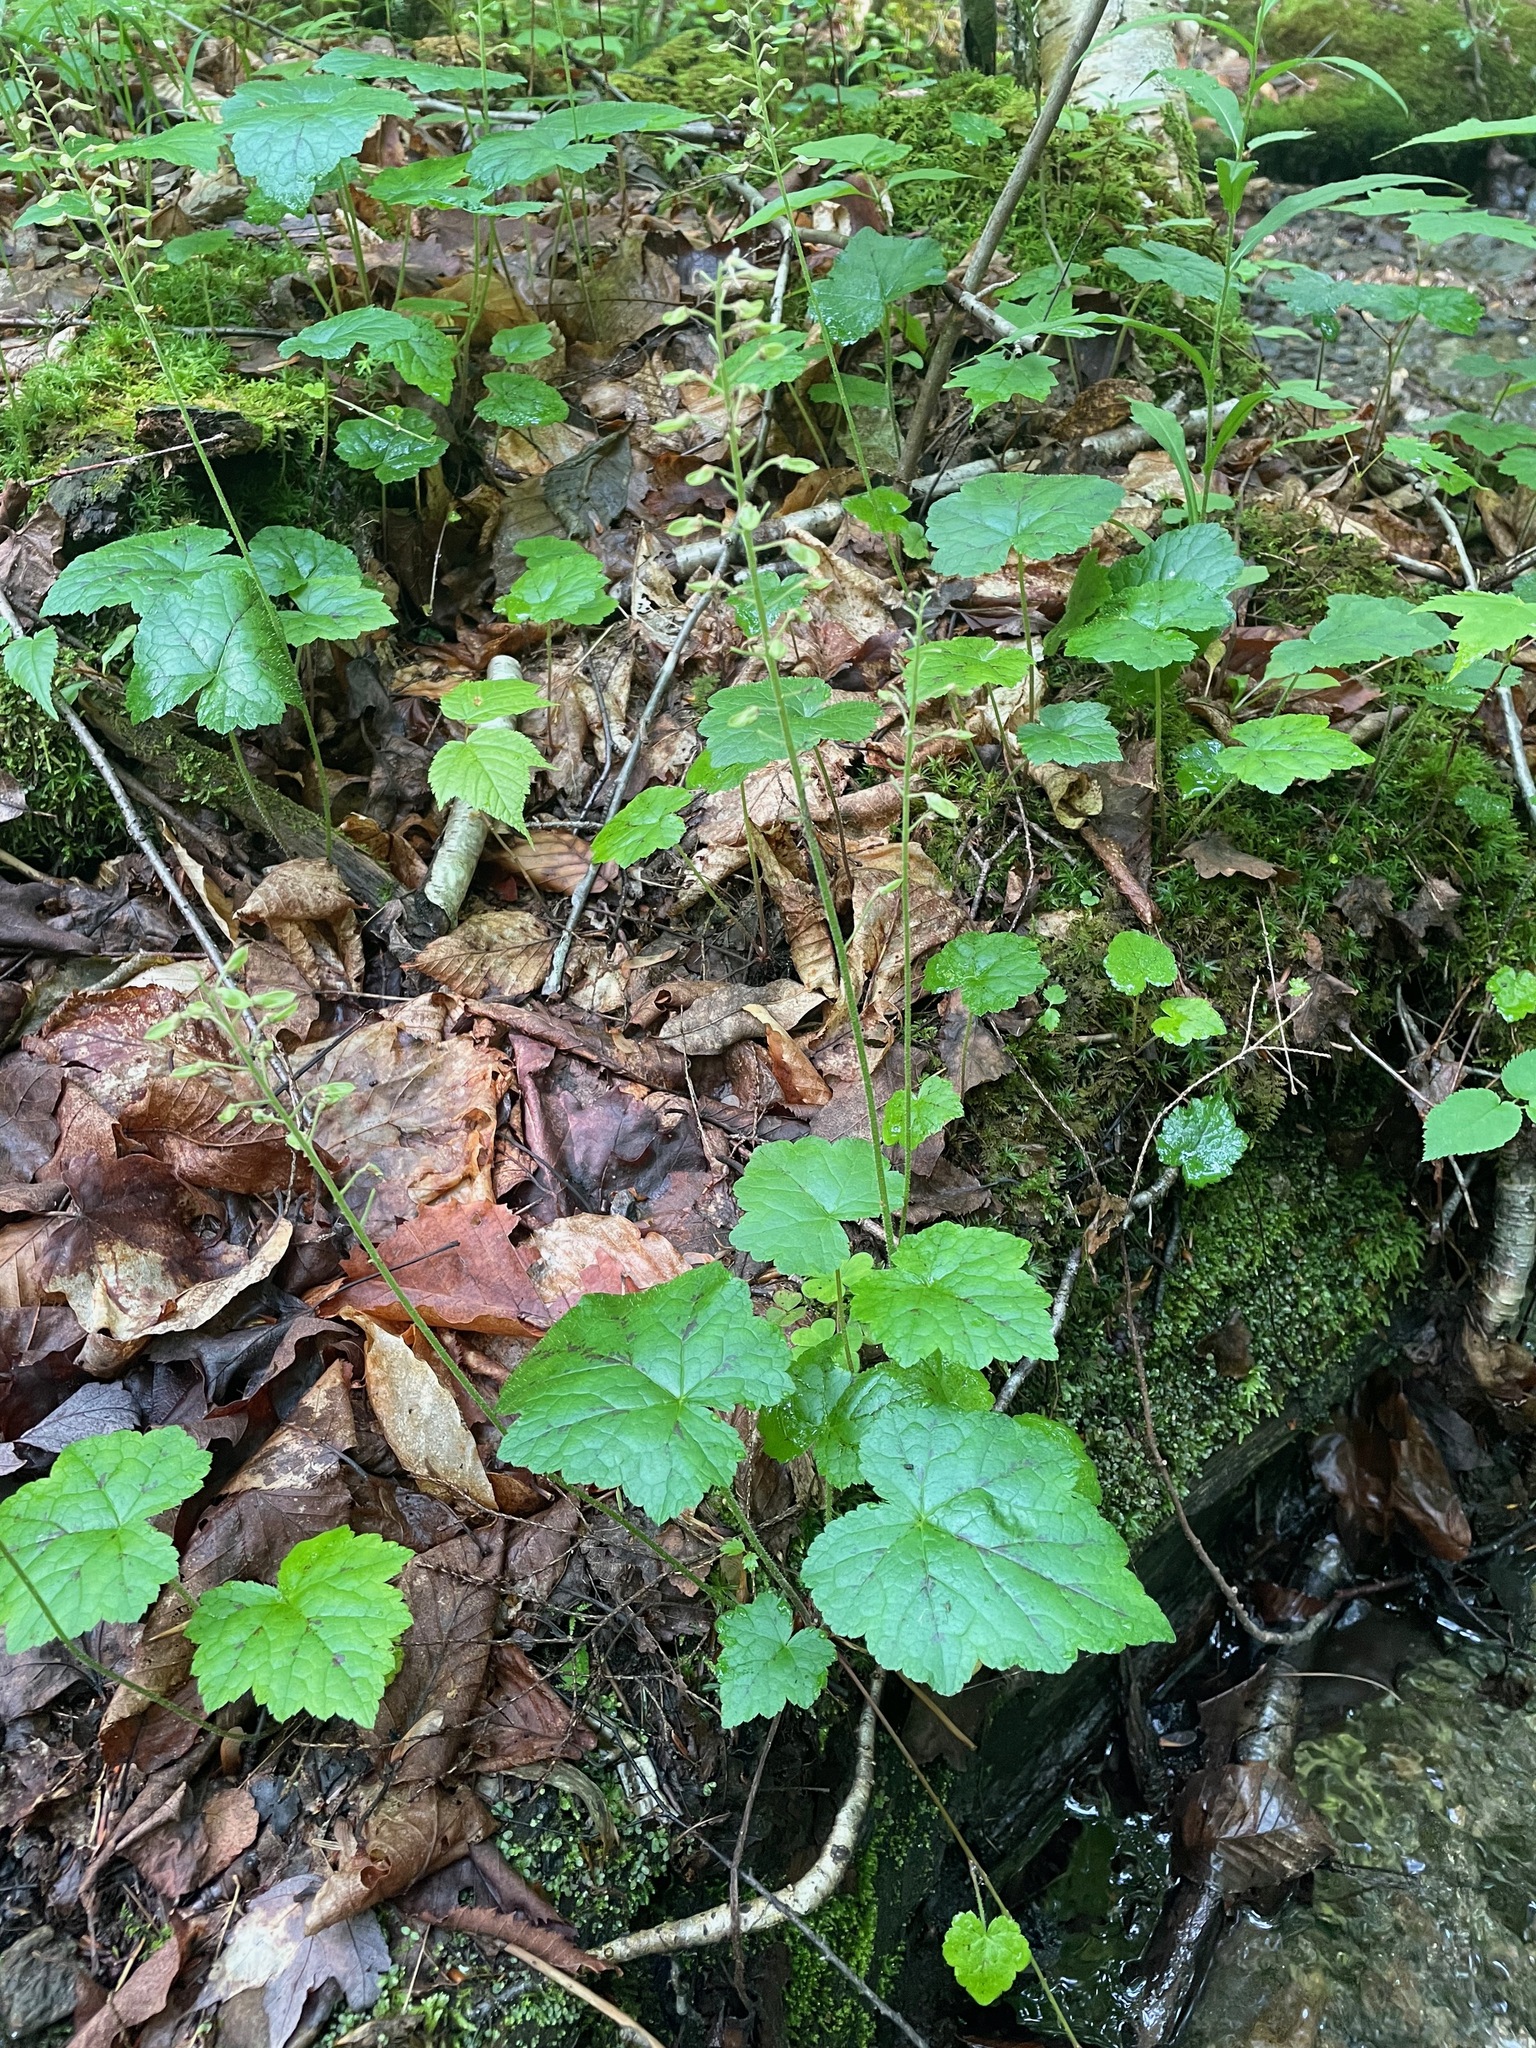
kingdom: Plantae
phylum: Tracheophyta
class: Magnoliopsida
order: Saxifragales
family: Saxifragaceae
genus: Tiarella
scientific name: Tiarella stolonifera
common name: Stoloniferous foamflower
